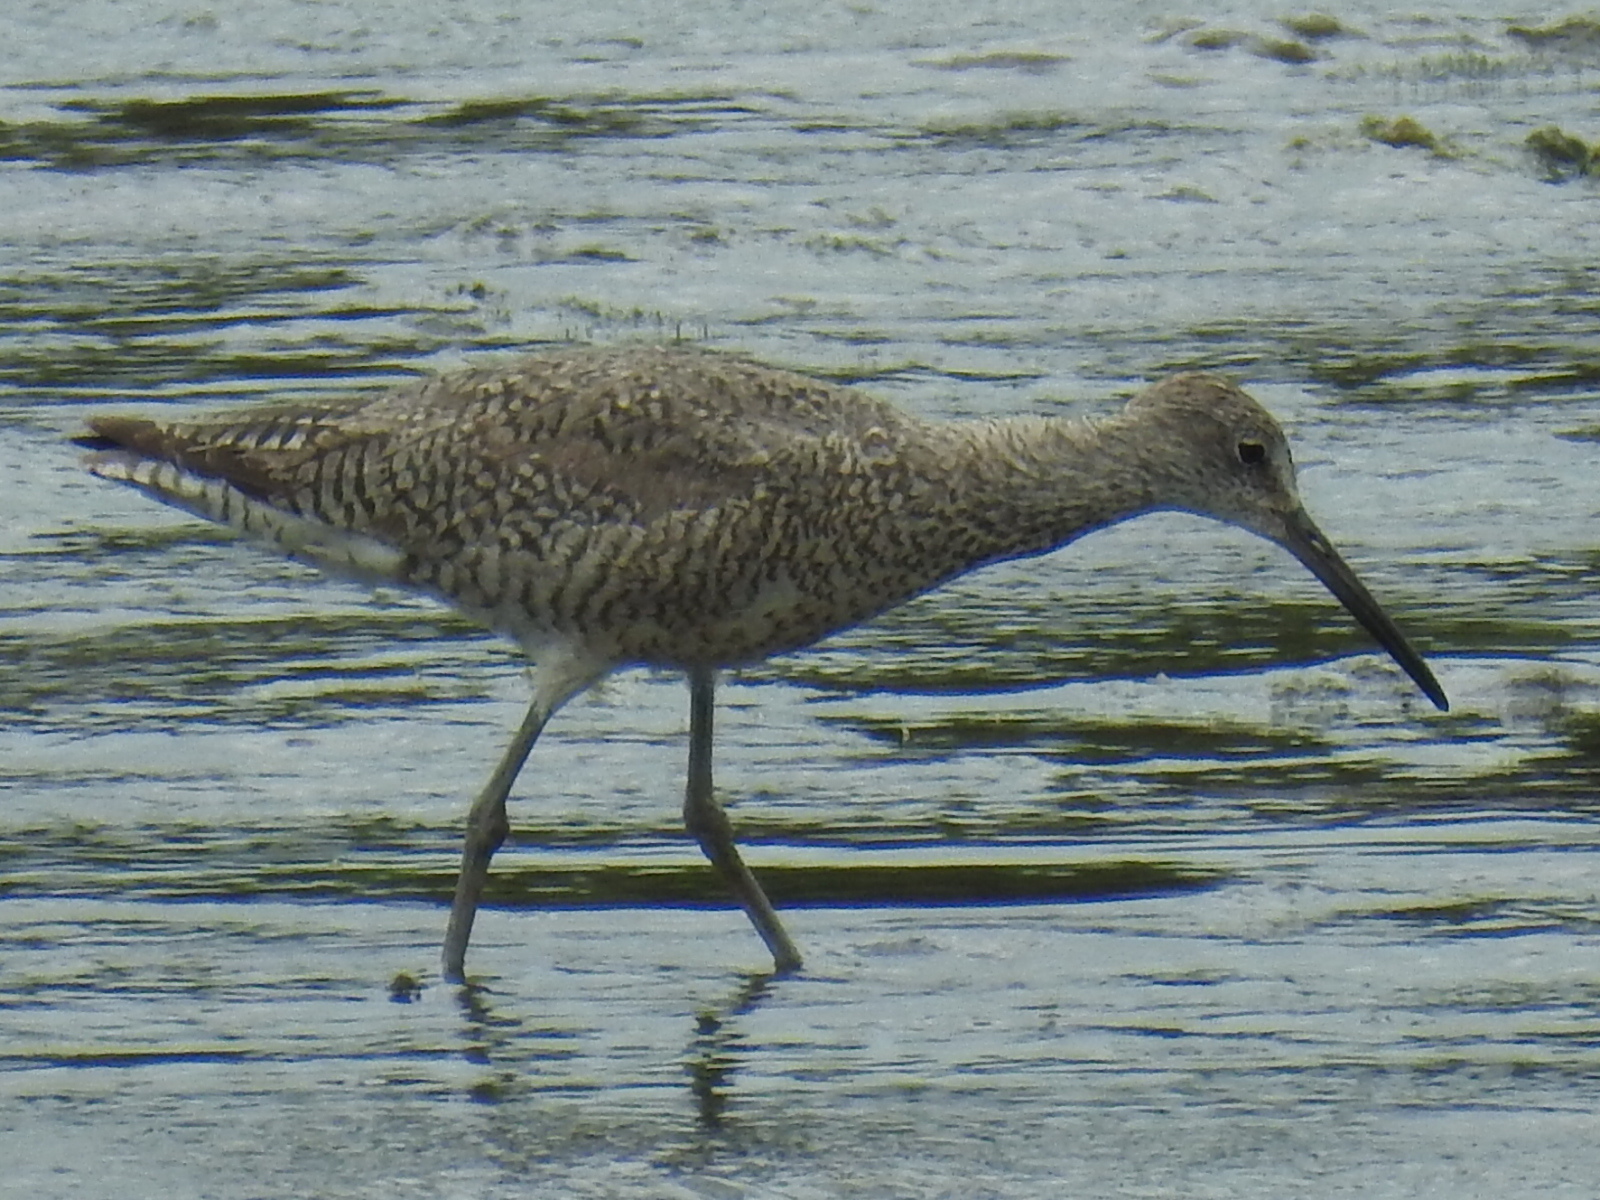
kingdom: Animalia
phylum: Chordata
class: Aves
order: Charadriiformes
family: Scolopacidae
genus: Tringa
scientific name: Tringa semipalmata
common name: Willet
